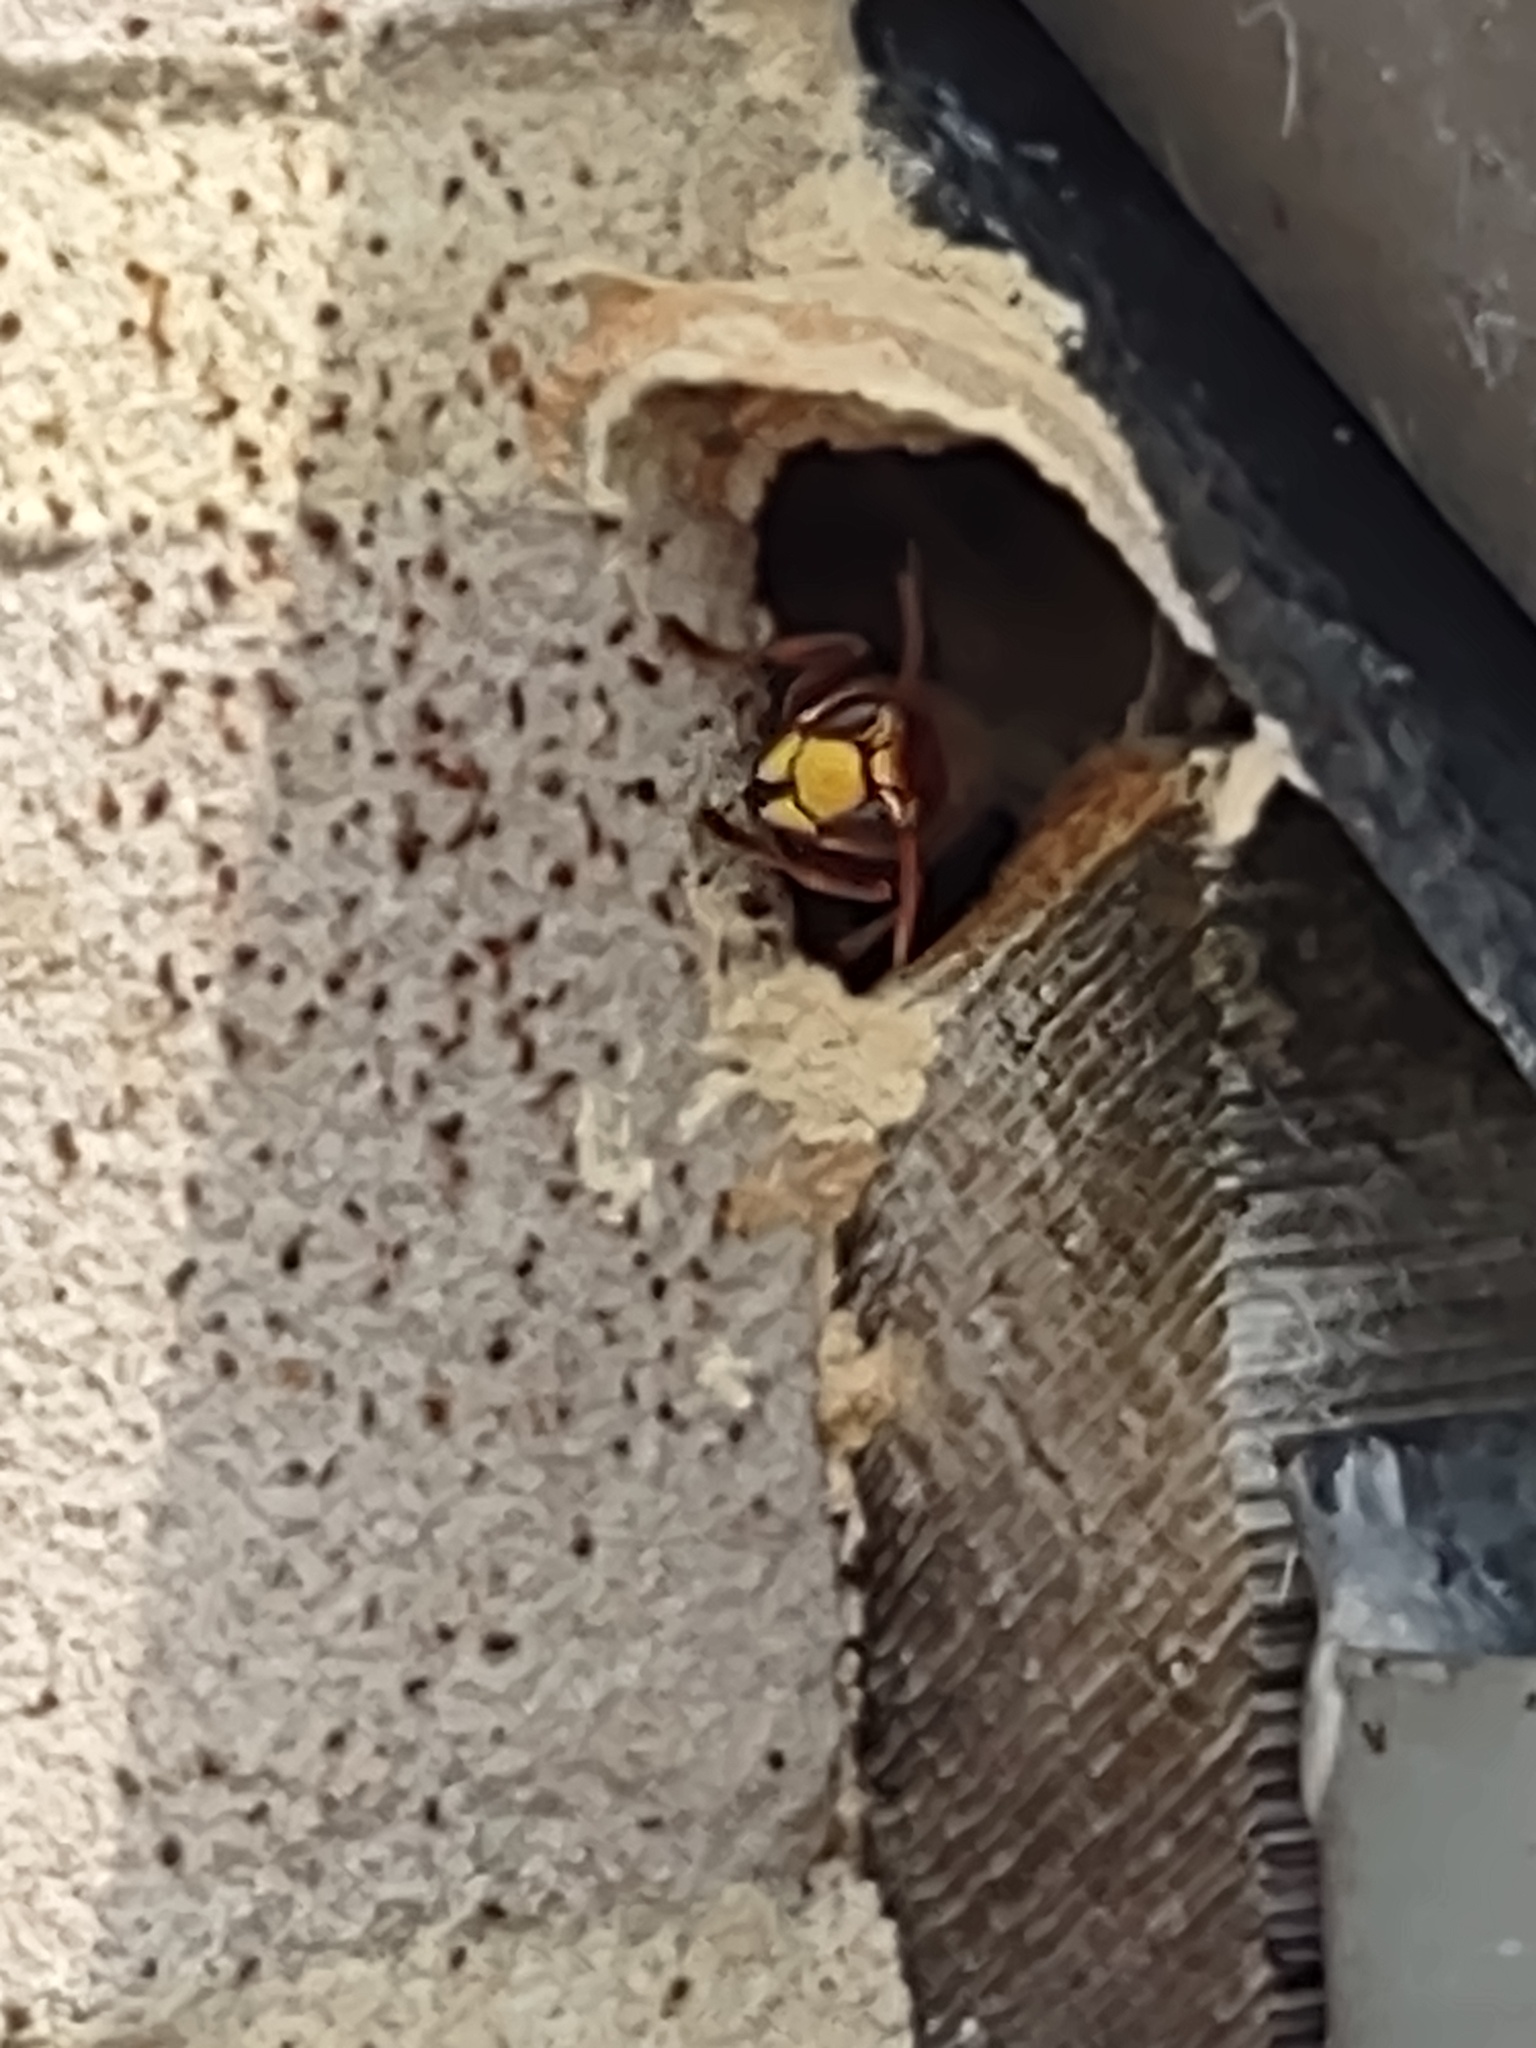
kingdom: Animalia
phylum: Arthropoda
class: Insecta
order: Hymenoptera
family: Vespidae
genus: Vespa
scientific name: Vespa crabro
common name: Hornet
